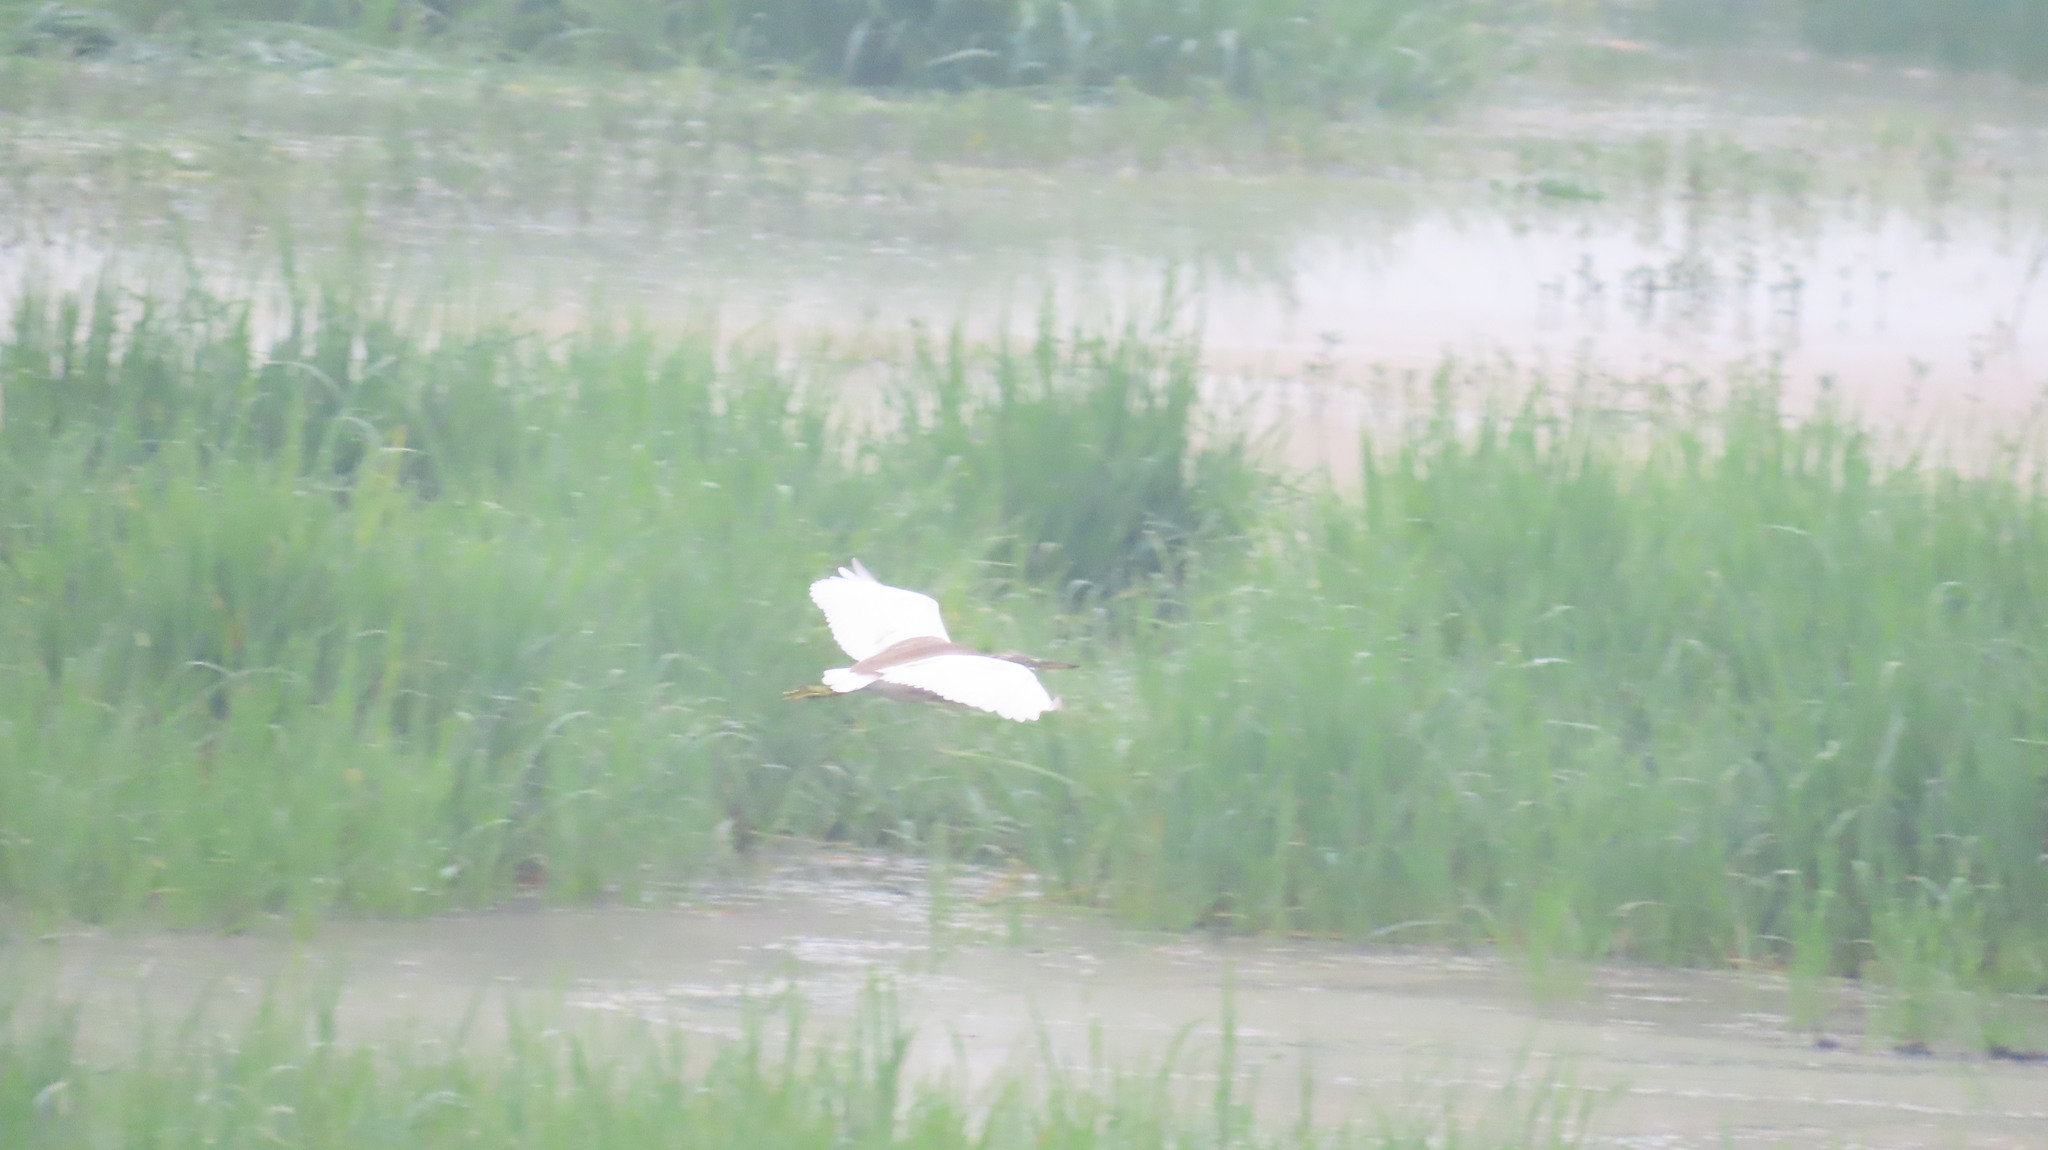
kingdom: Animalia
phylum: Chordata
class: Aves
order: Pelecaniformes
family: Ardeidae
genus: Ardeola
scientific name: Ardeola grayii
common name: Indian pond heron
